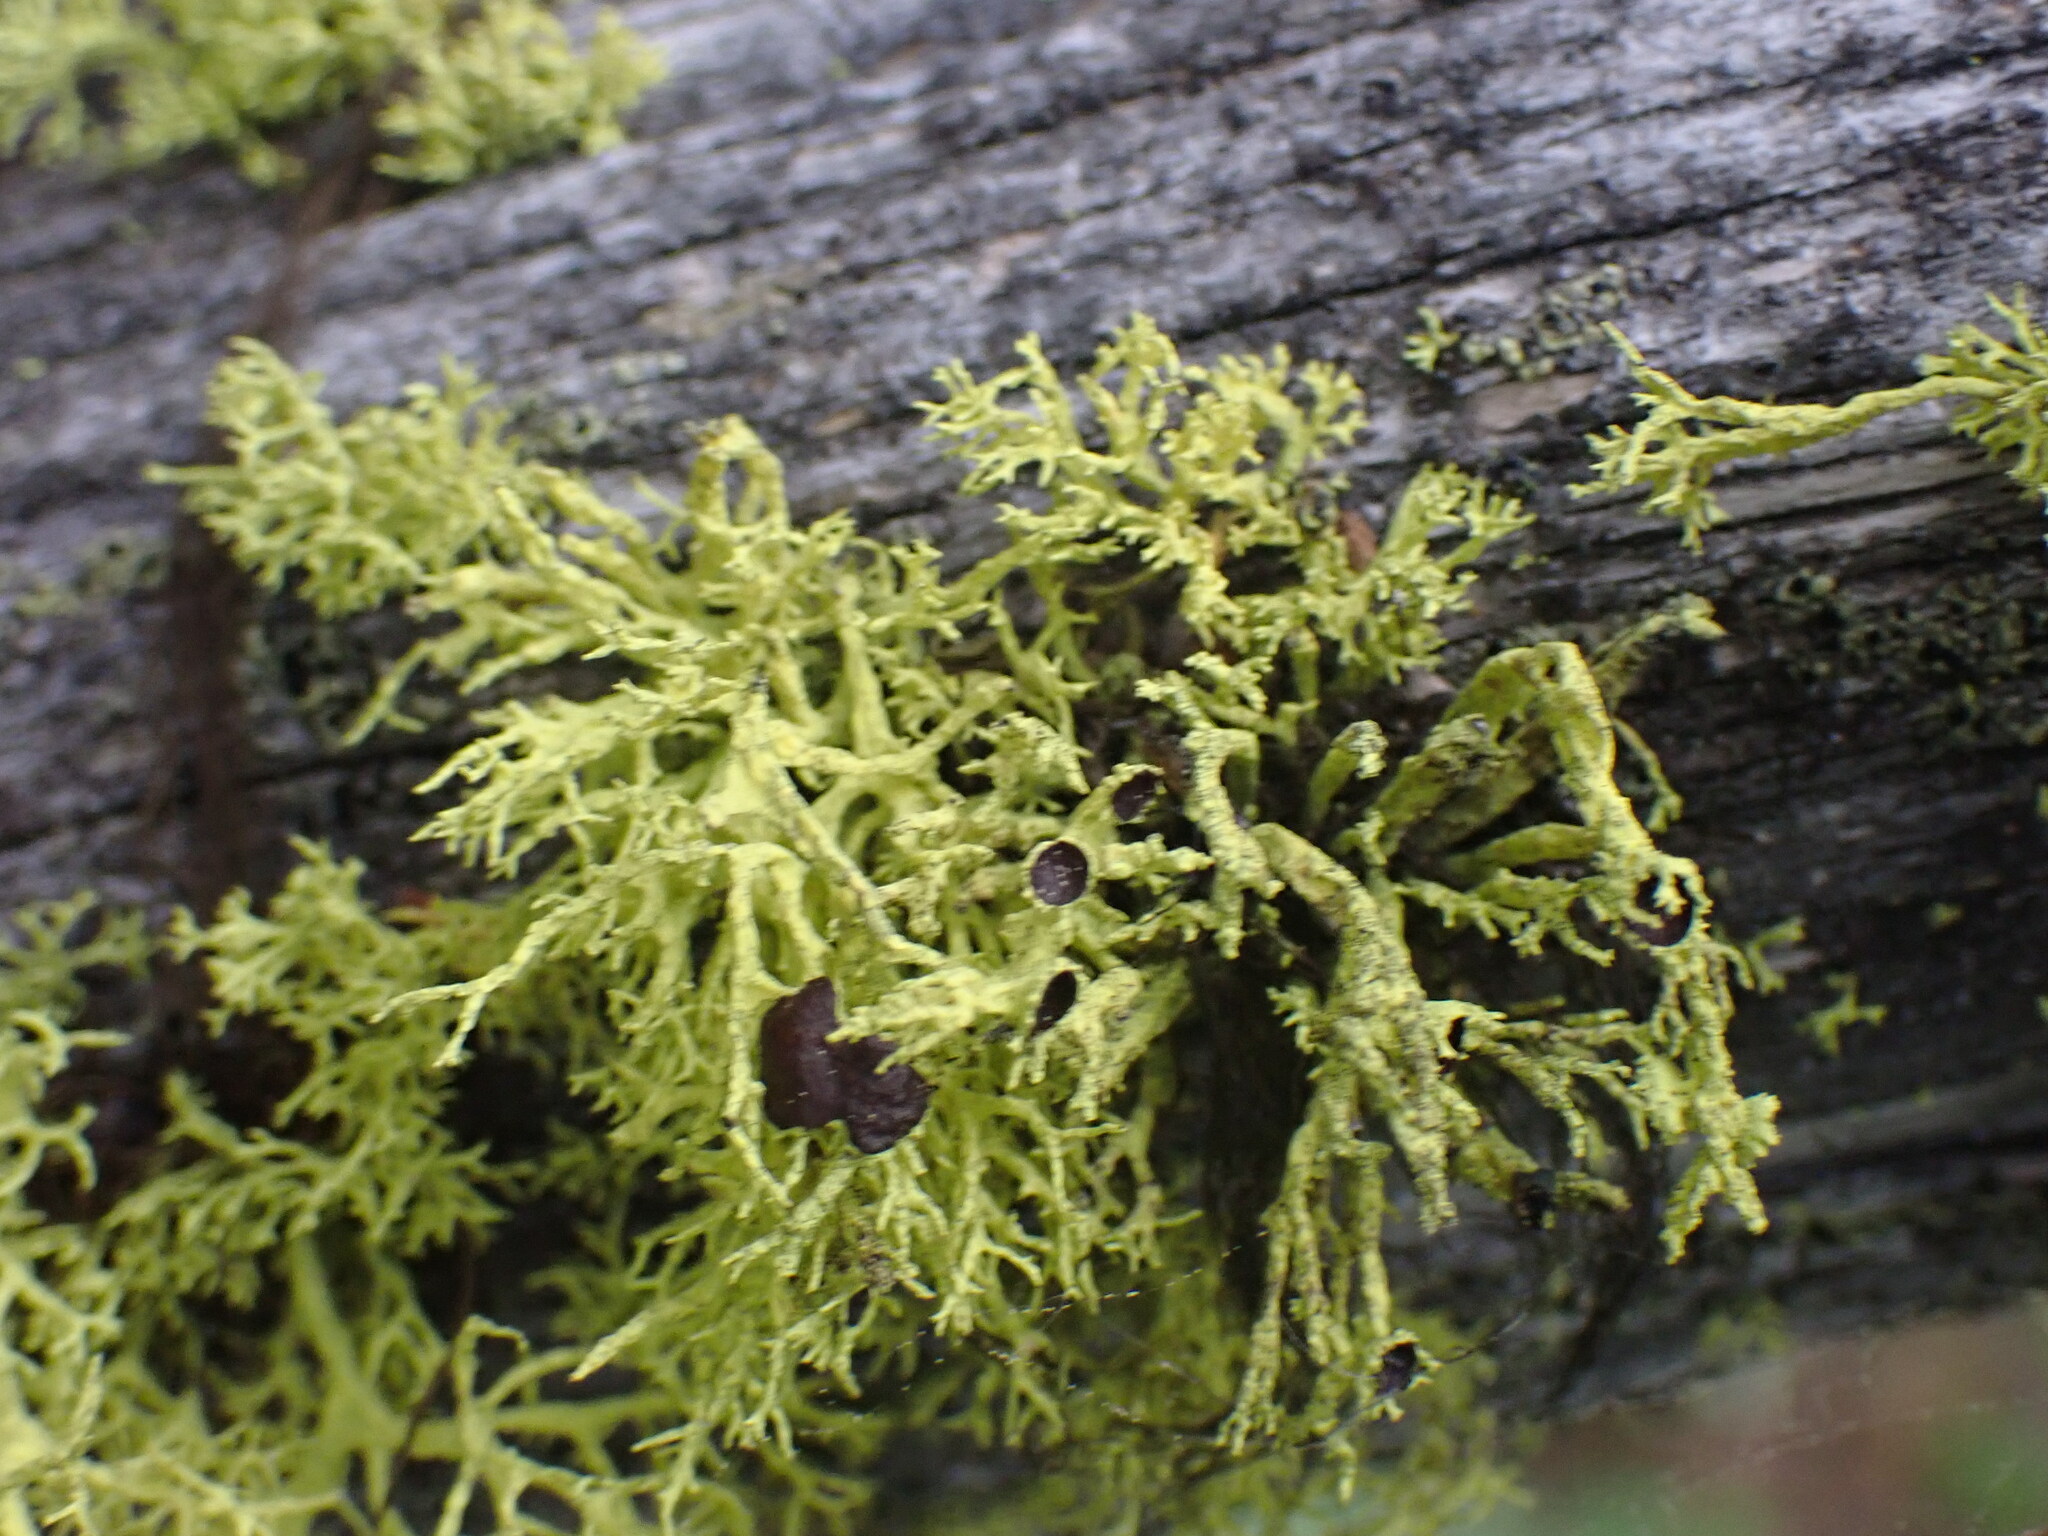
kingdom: Fungi
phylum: Ascomycota
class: Lecanoromycetes
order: Lecanorales
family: Parmeliaceae
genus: Letharia
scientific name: Letharia columbiana
